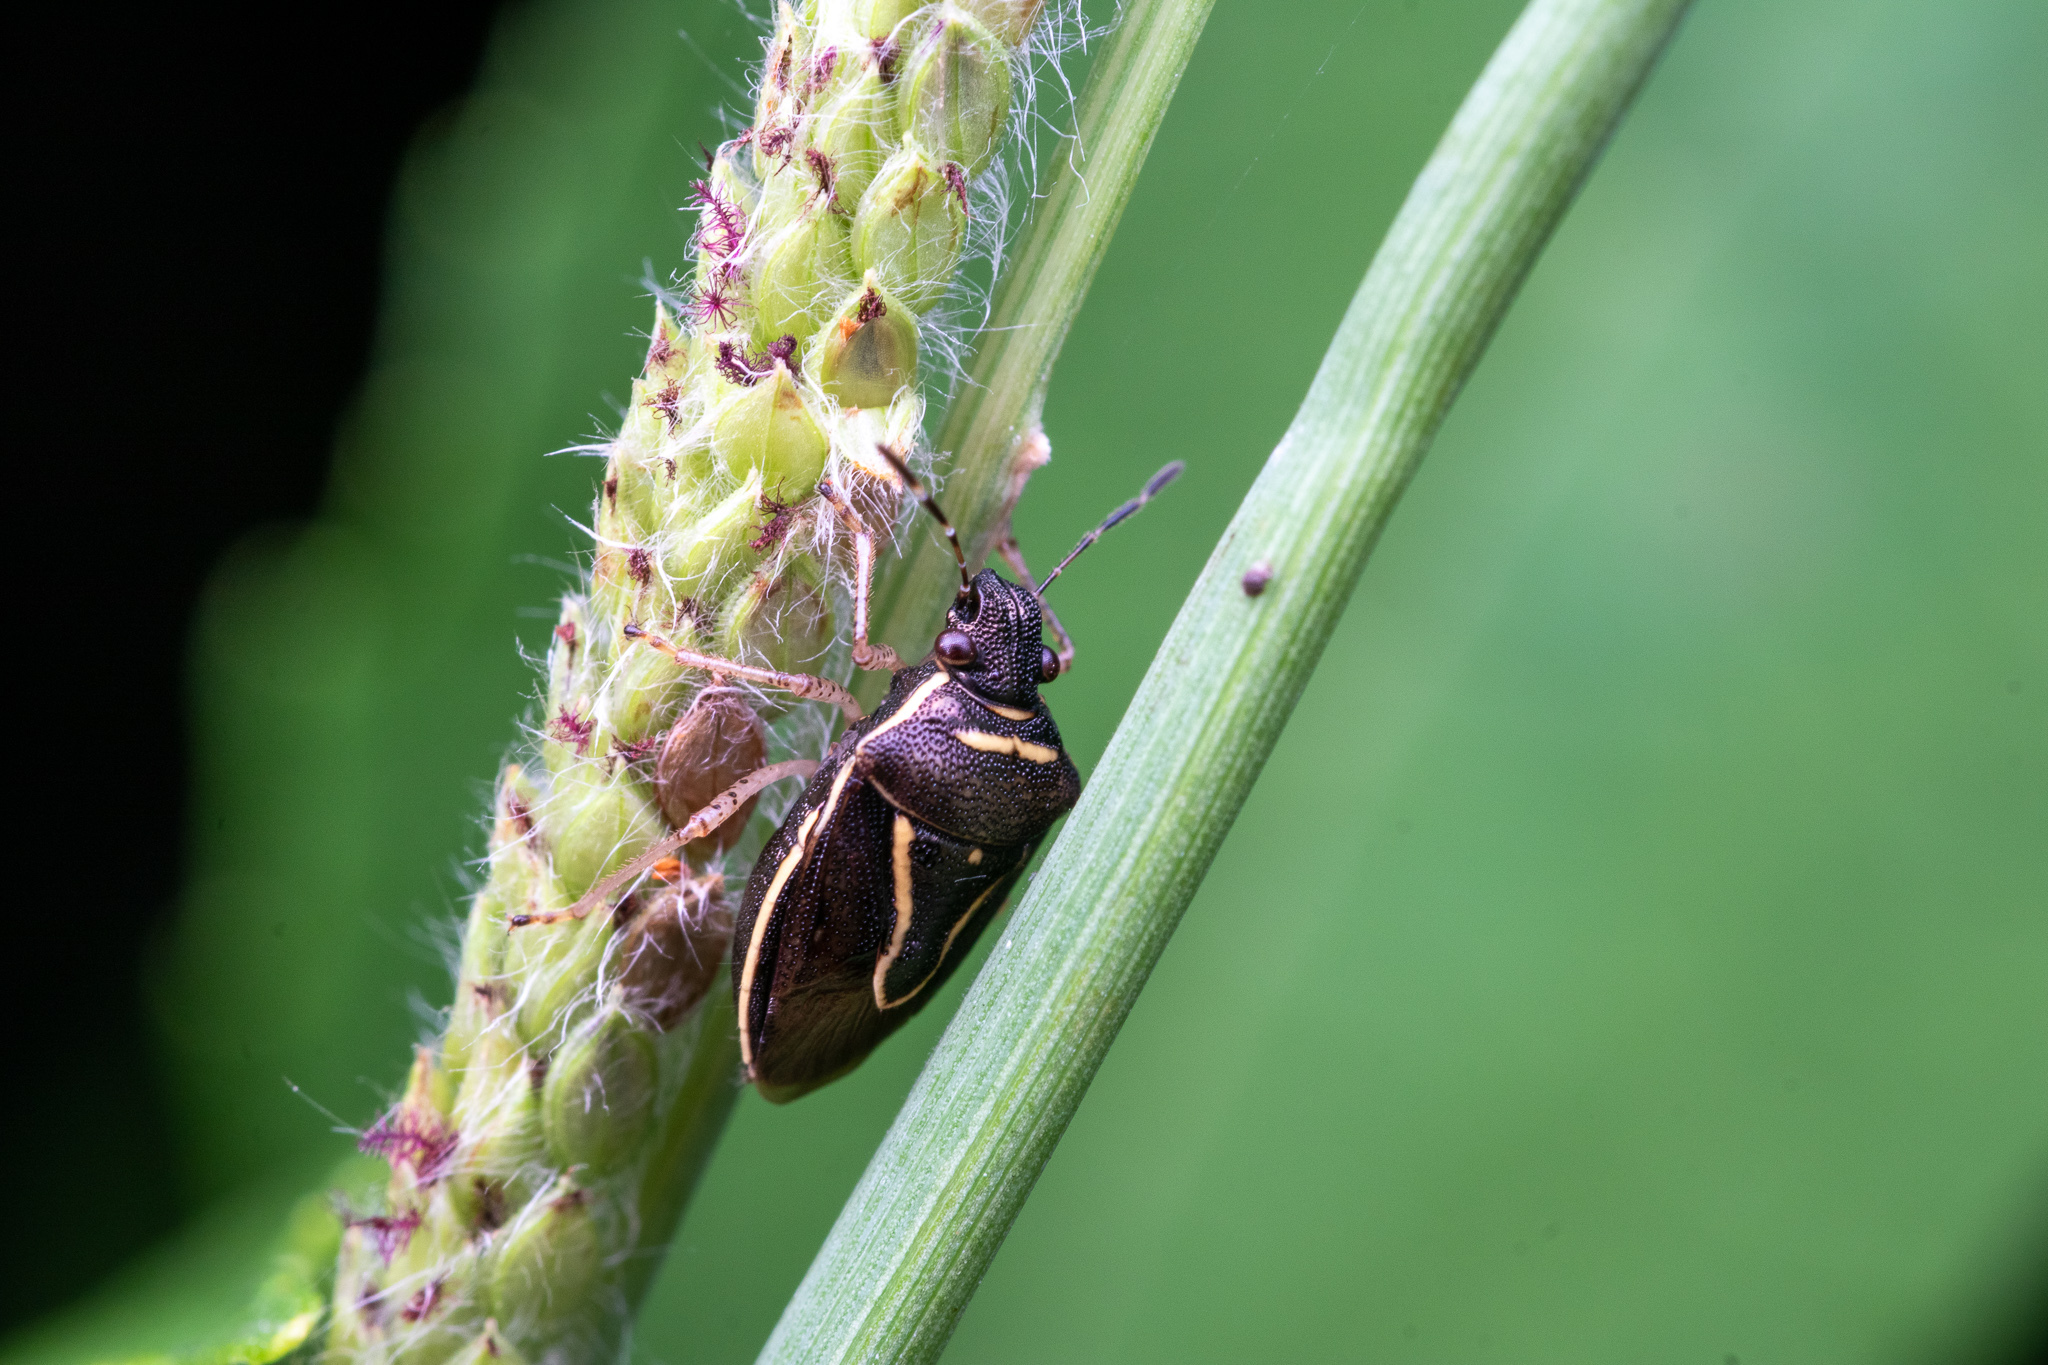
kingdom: Animalia
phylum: Arthropoda
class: Insecta
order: Hemiptera
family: Pentatomidae
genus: Mormidea
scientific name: Mormidea lugens
